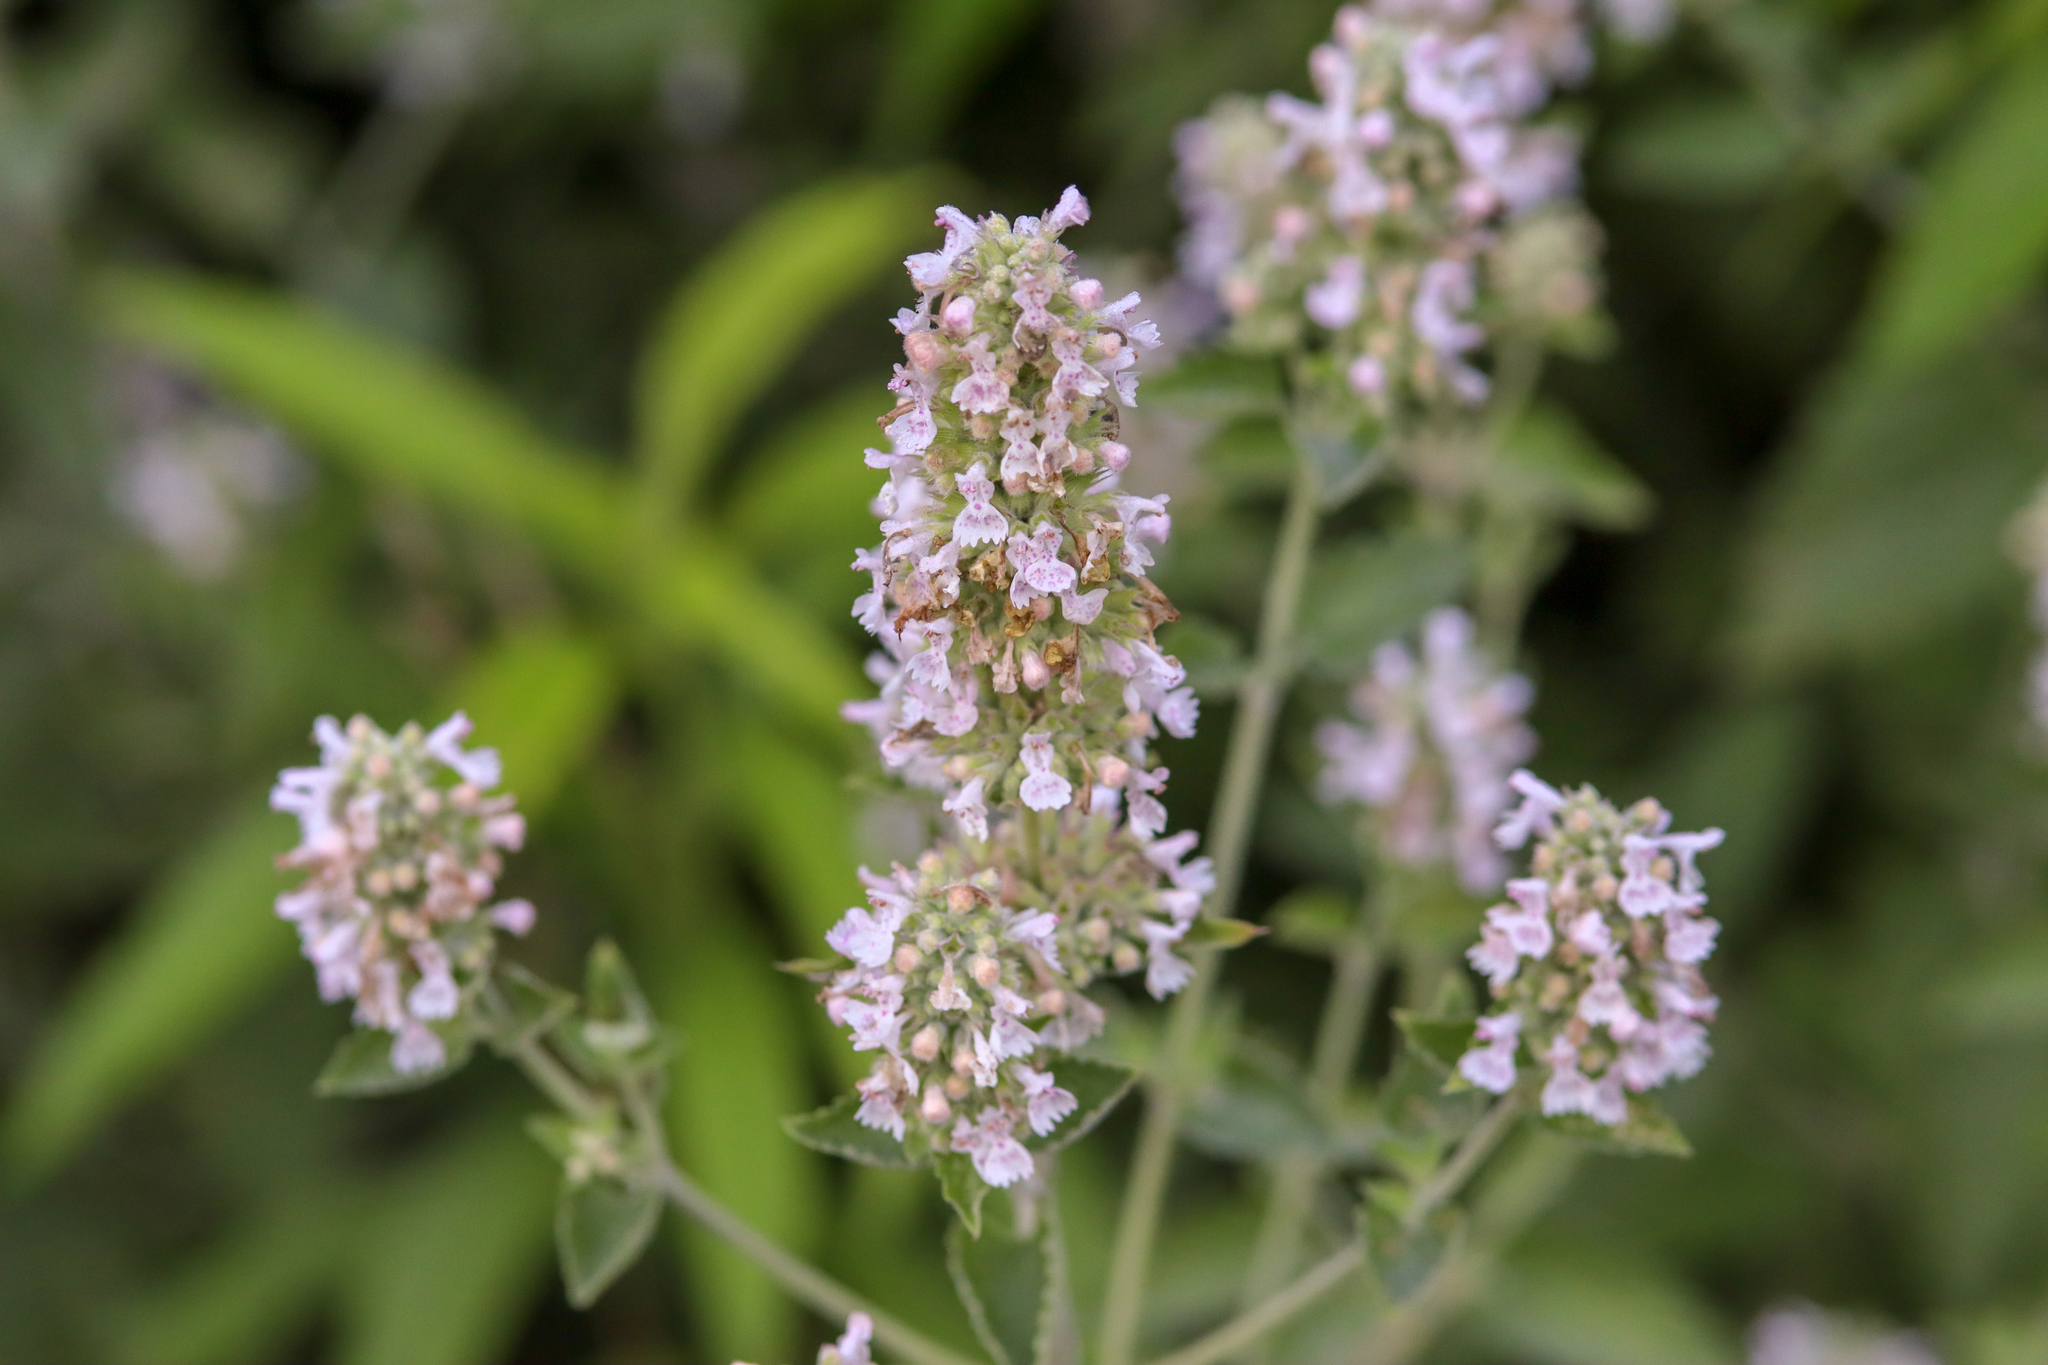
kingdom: Plantae
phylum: Tracheophyta
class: Magnoliopsida
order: Lamiales
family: Lamiaceae
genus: Nepeta
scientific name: Nepeta cataria
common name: Catnip
